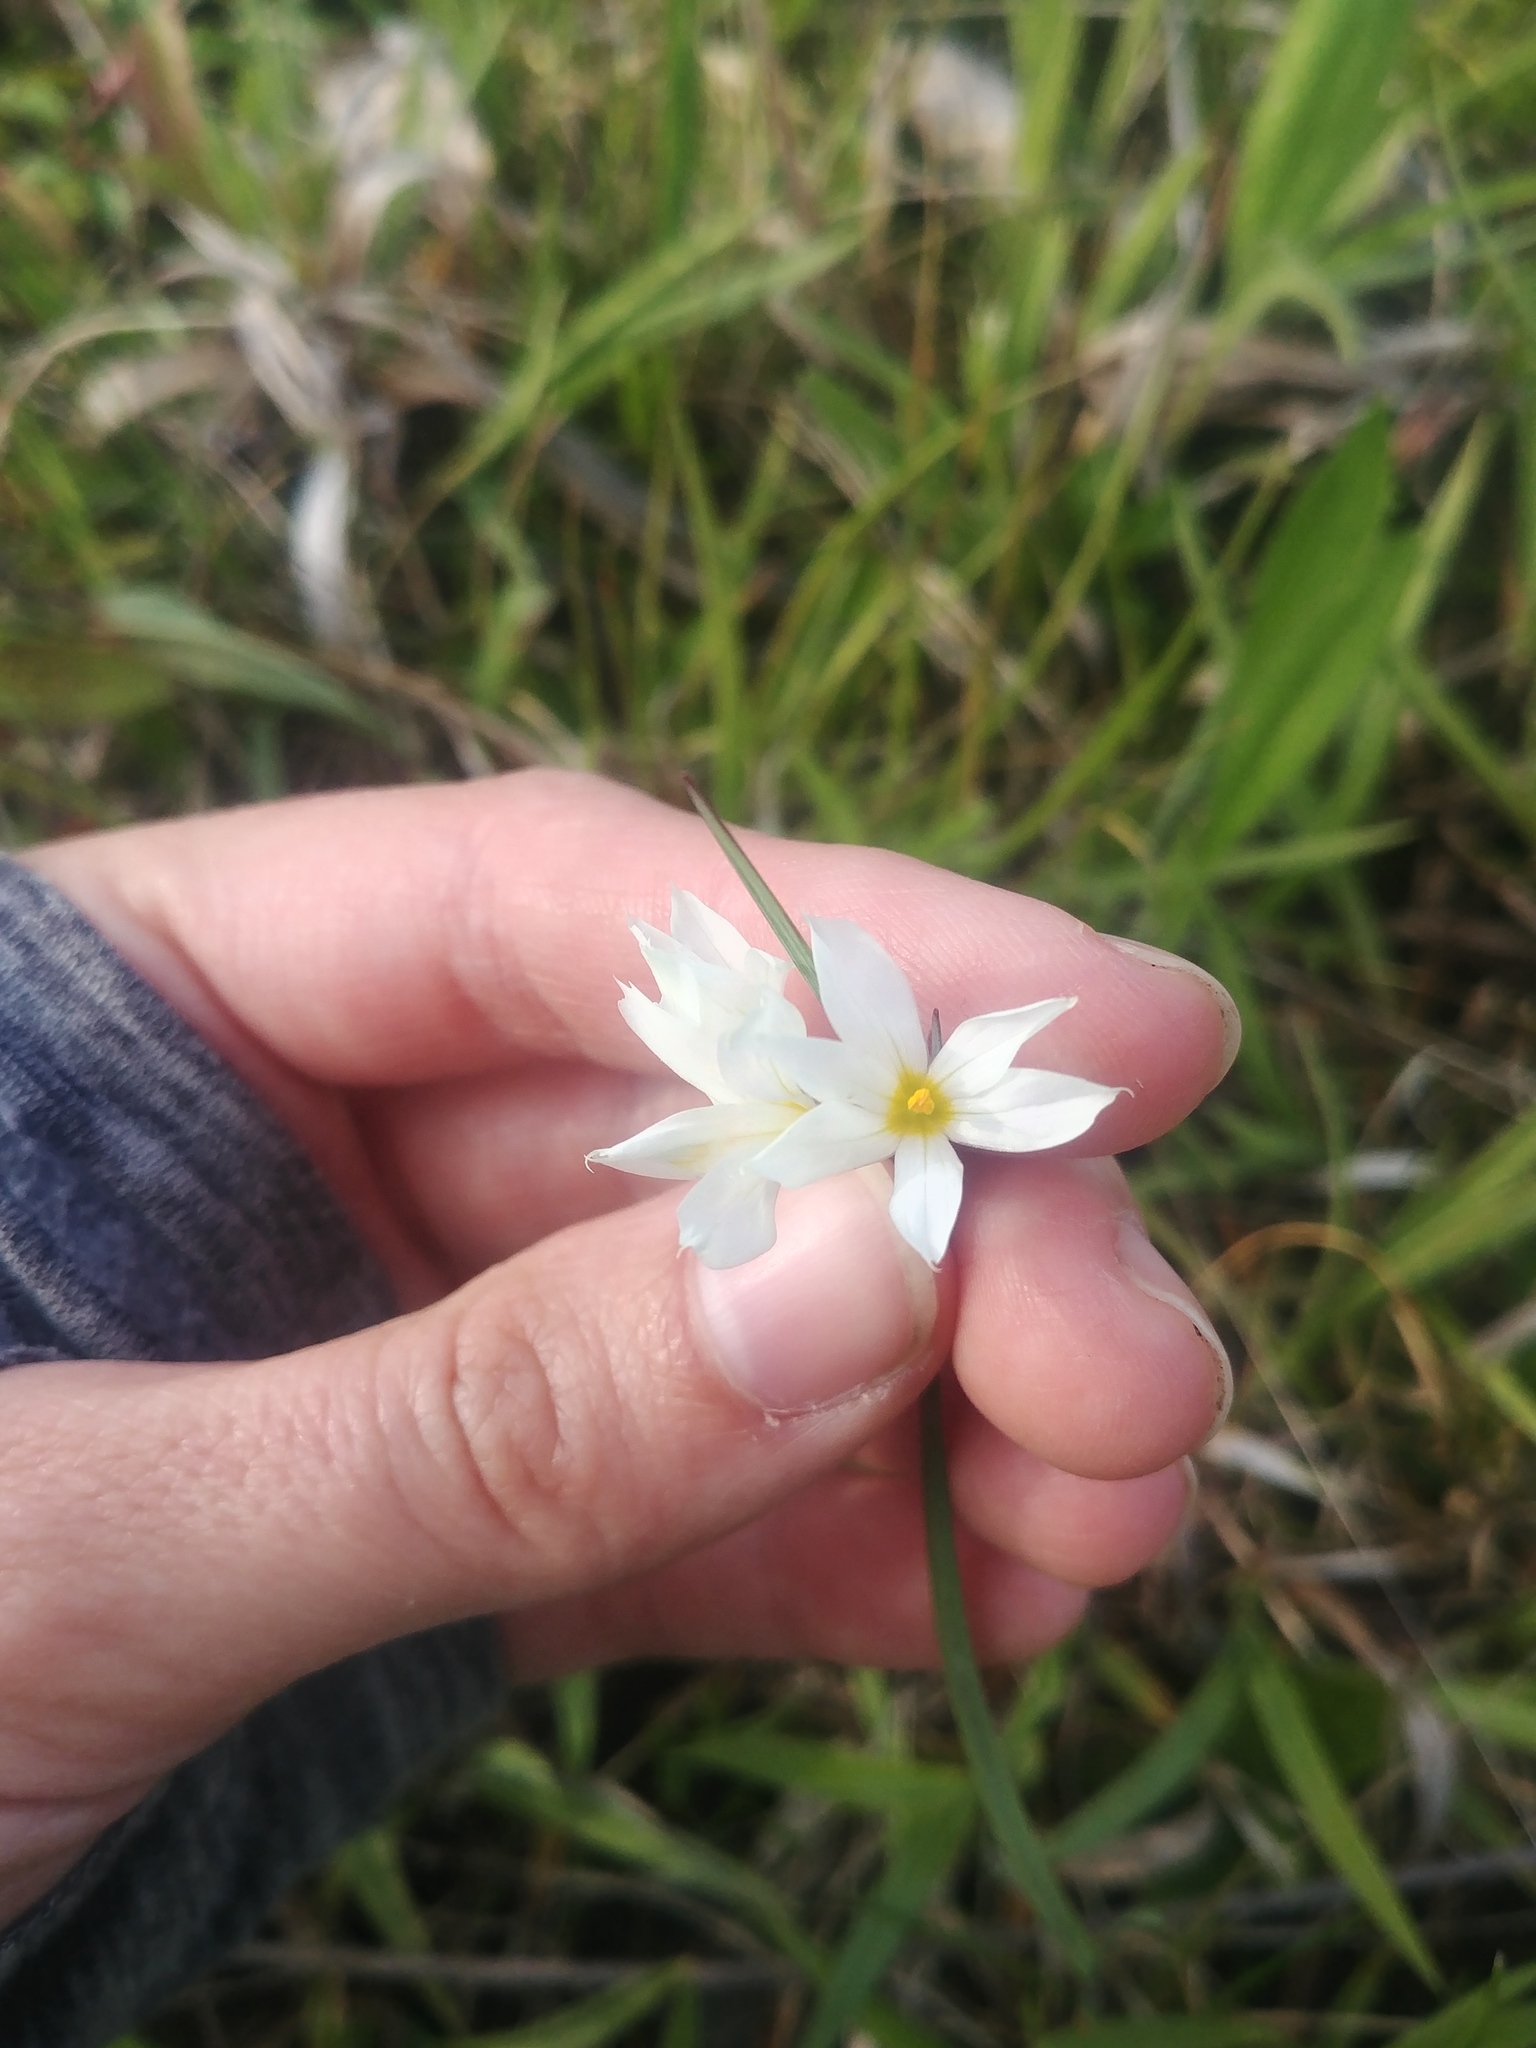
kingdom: Plantae
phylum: Tracheophyta
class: Liliopsida
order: Asparagales
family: Iridaceae
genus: Sisyrinchium
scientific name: Sisyrinchium albidum
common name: Pale blue-eyed-grass
